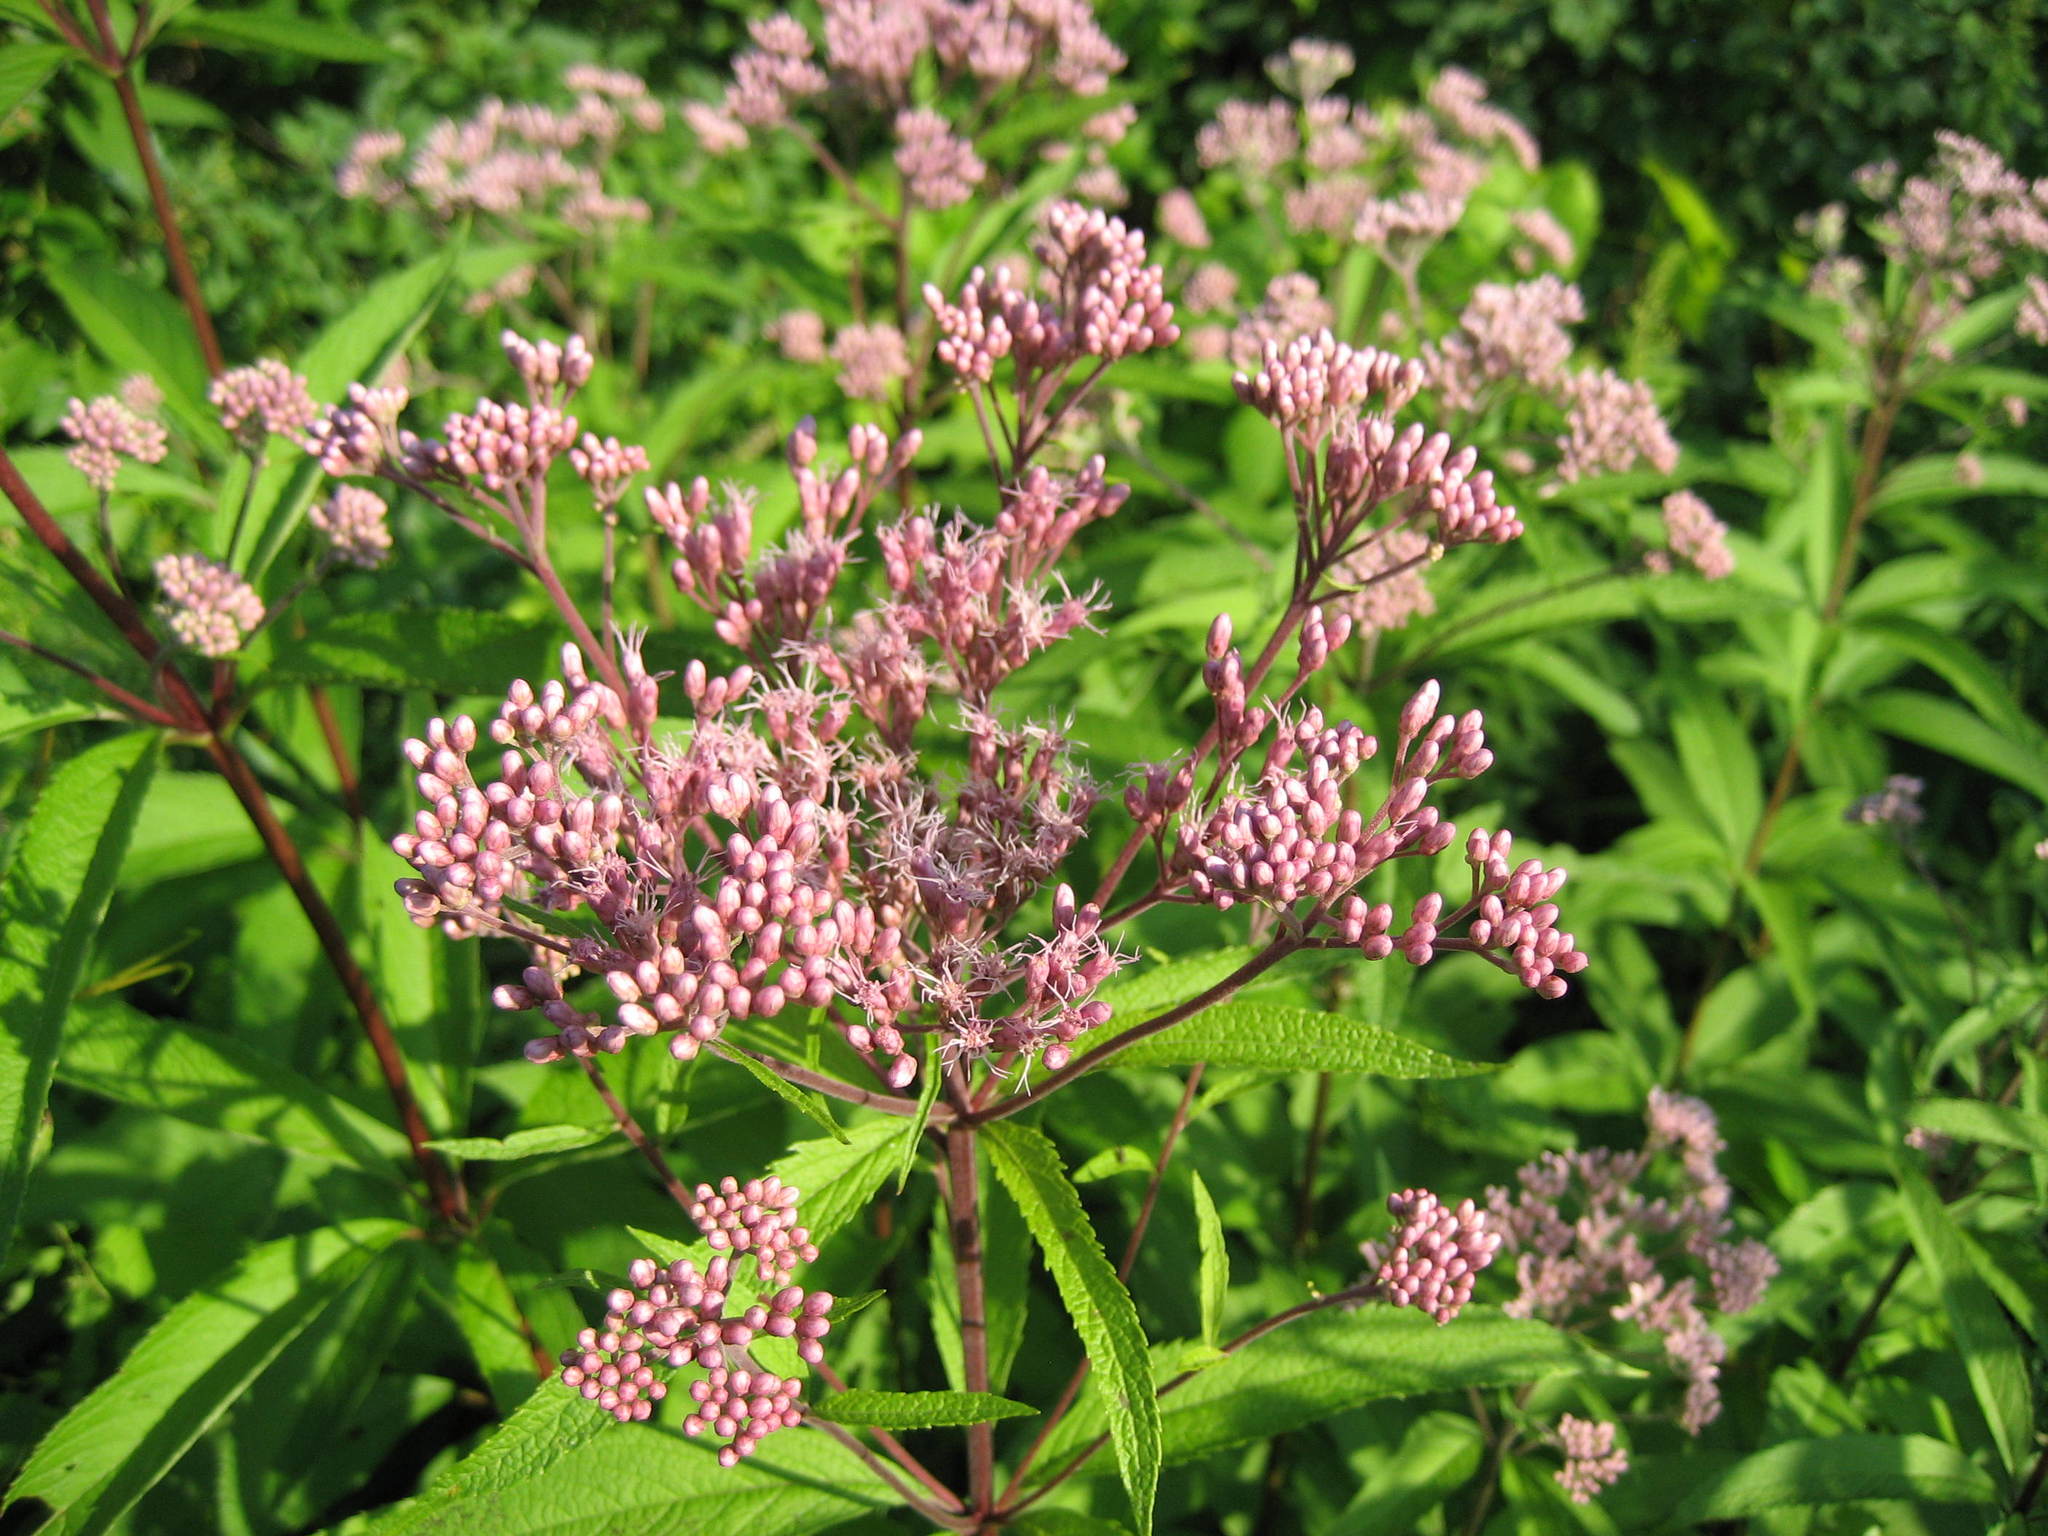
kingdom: Plantae
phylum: Tracheophyta
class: Magnoliopsida
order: Asterales
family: Asteraceae
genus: Eutrochium
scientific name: Eutrochium maculatum
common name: Spotted joe pye weed
